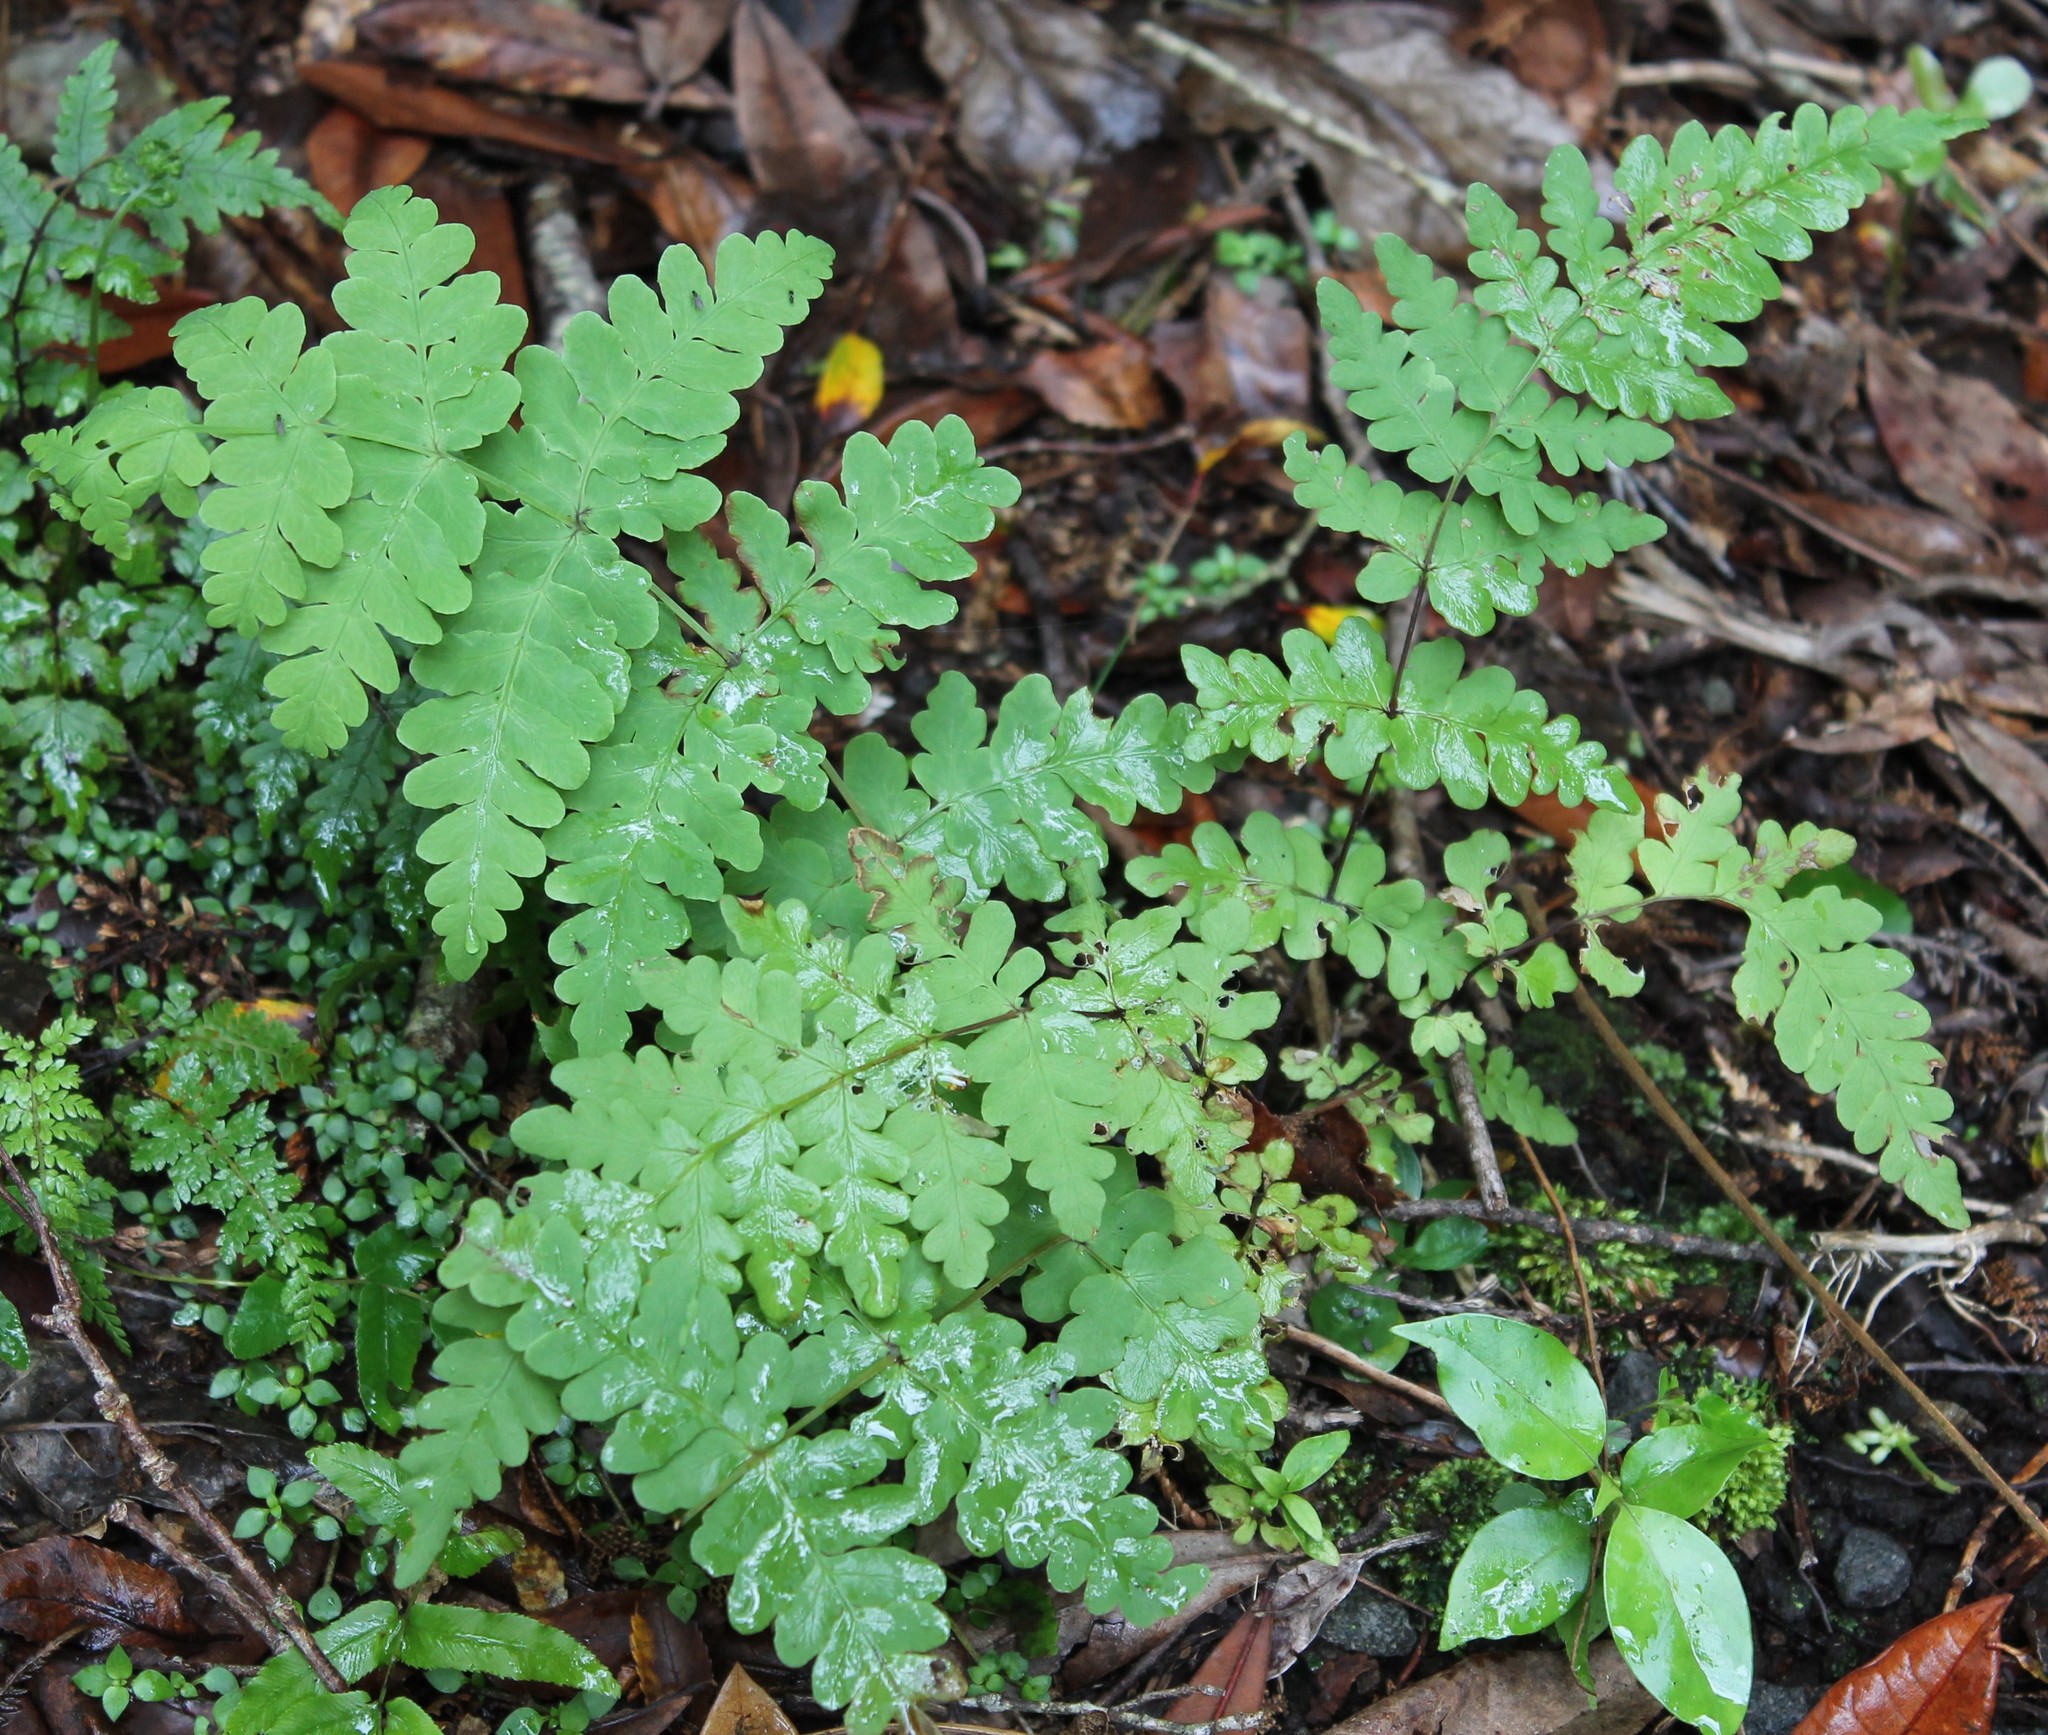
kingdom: Plantae
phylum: Tracheophyta
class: Polypodiopsida
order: Polypodiales
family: Dennstaedtiaceae
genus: Histiopteris
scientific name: Histiopteris incisa
